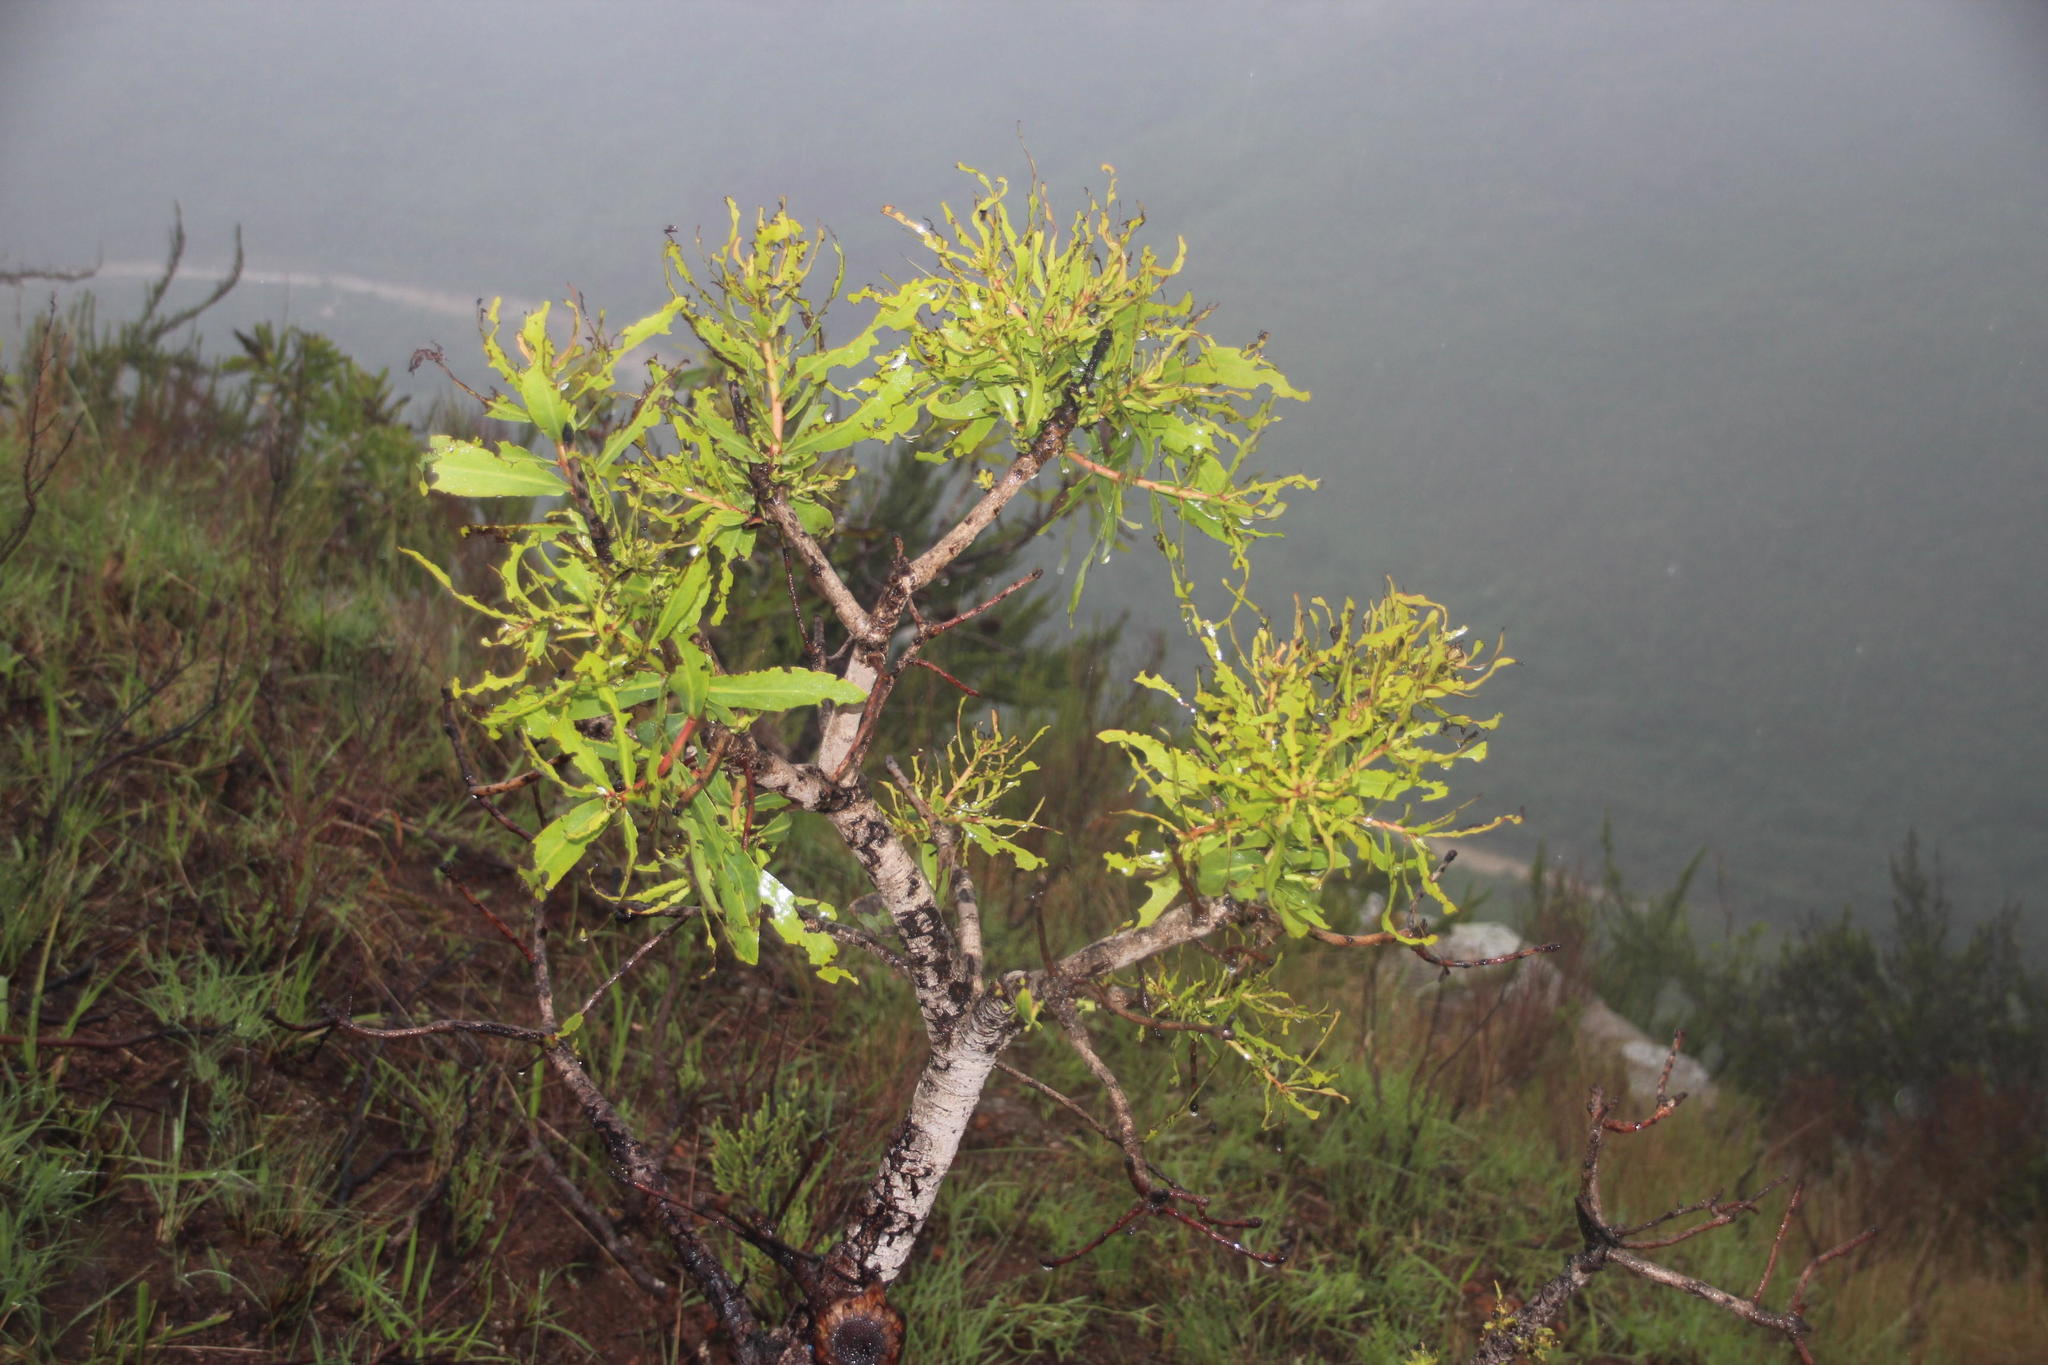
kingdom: Plantae
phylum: Tracheophyta
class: Magnoliopsida
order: Proteales
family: Proteaceae
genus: Protea
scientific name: Protea caffra
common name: Common sugarbush
